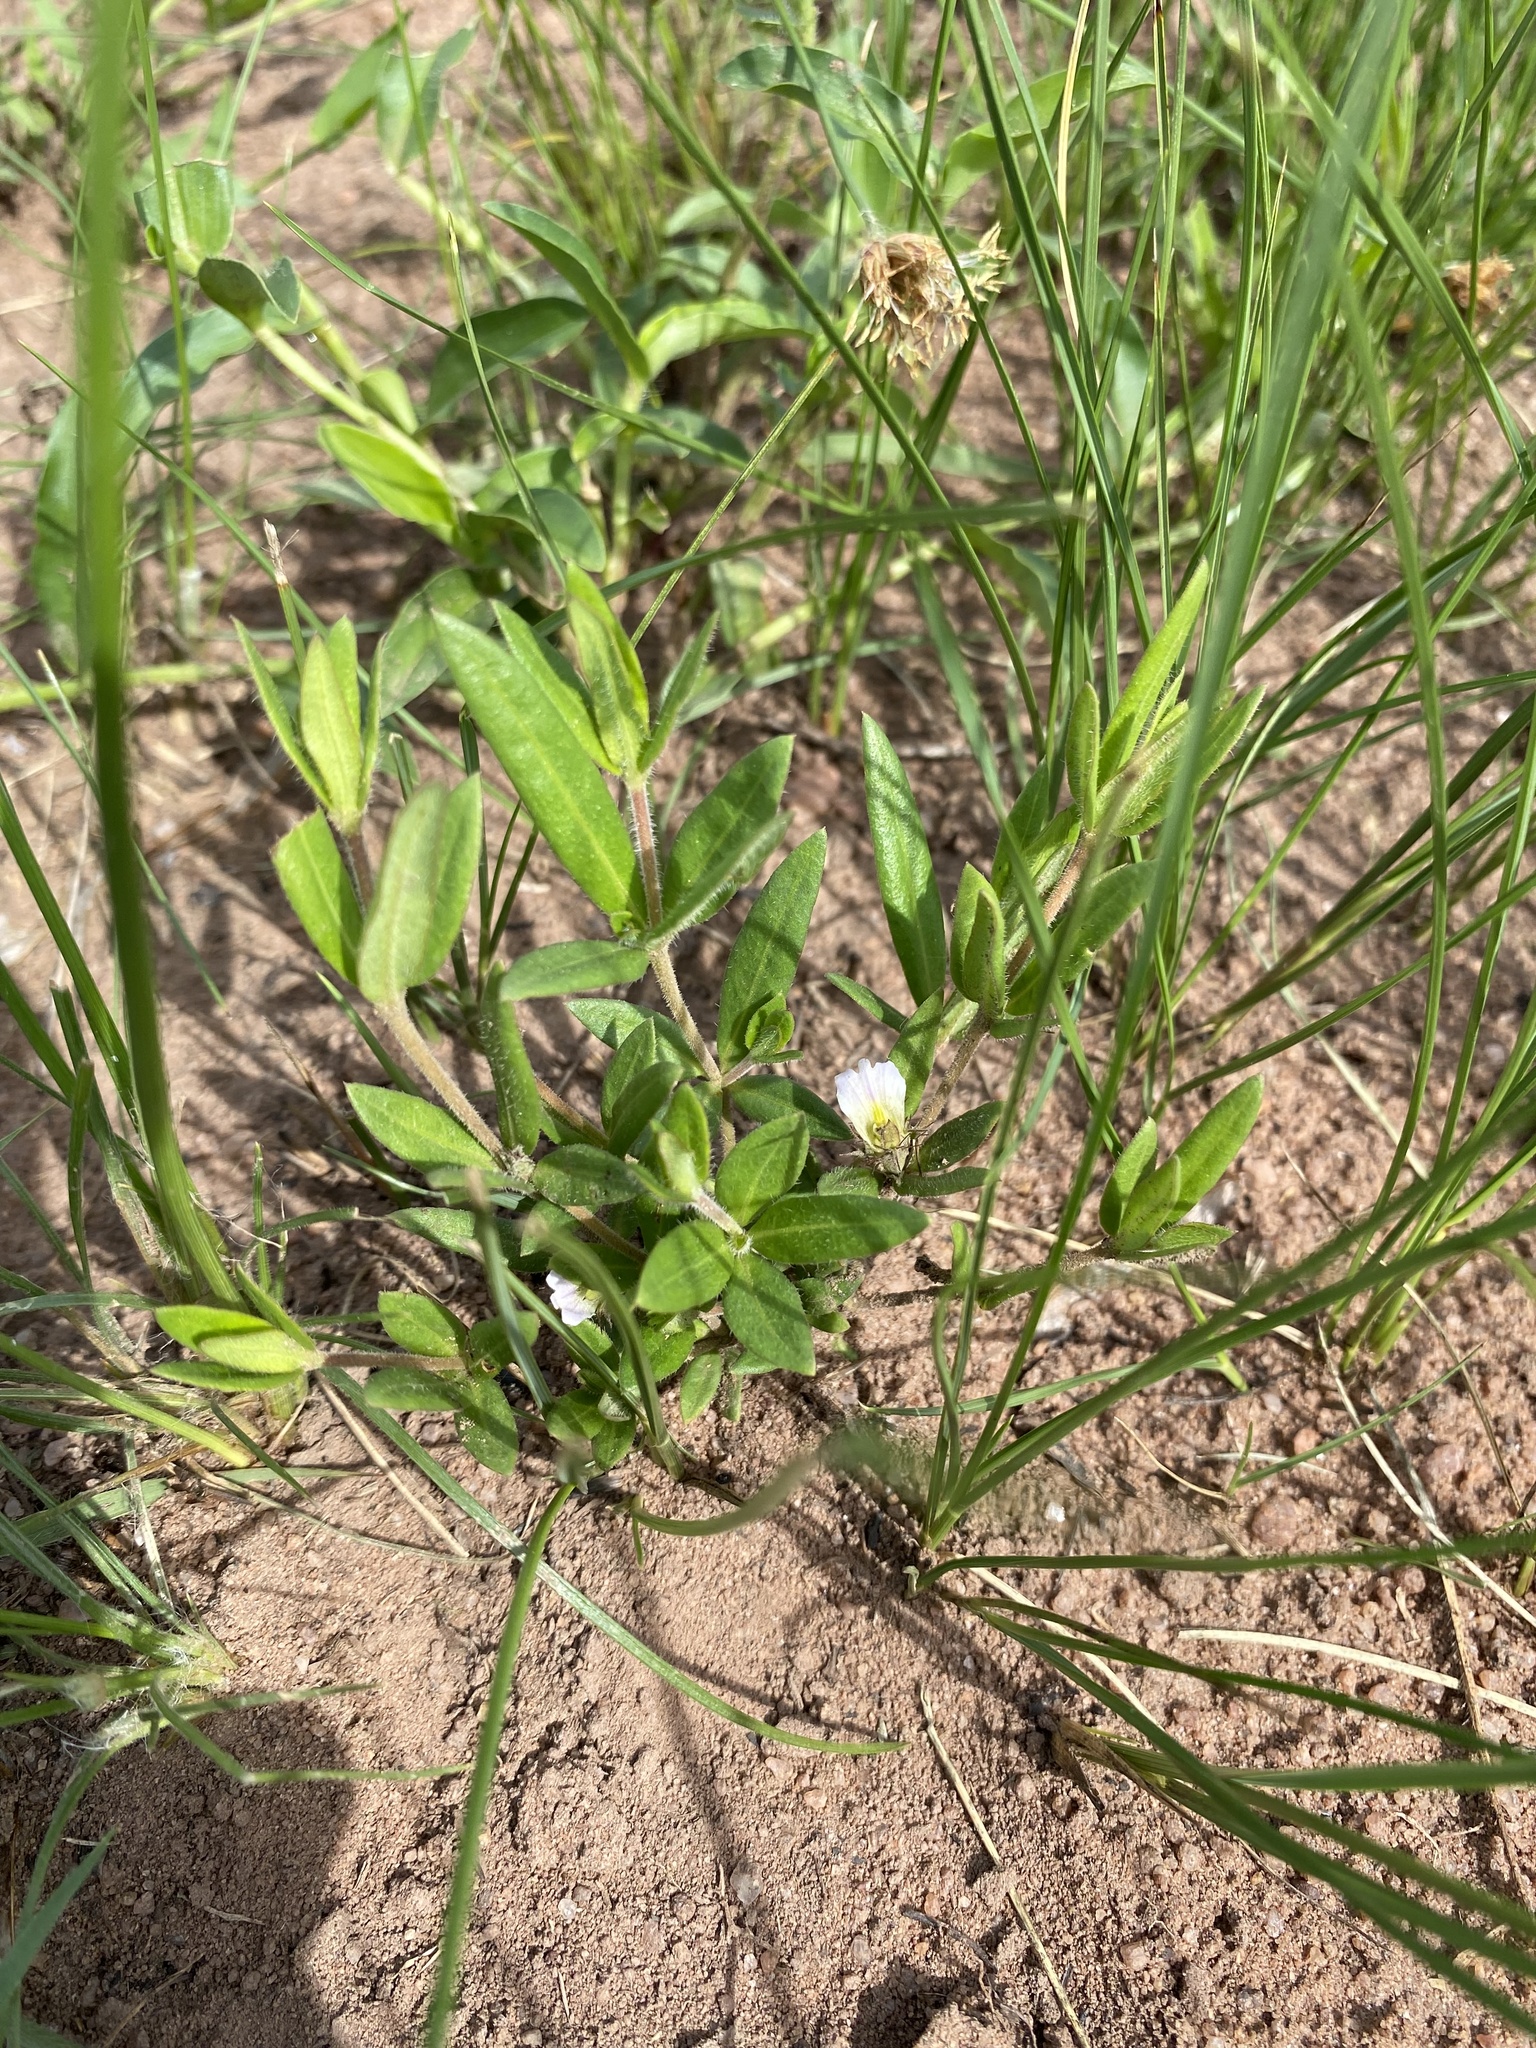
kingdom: Plantae
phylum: Tracheophyta
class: Magnoliopsida
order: Lamiales
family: Acanthaceae
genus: Blepharis
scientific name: Blepharis integrifolia
